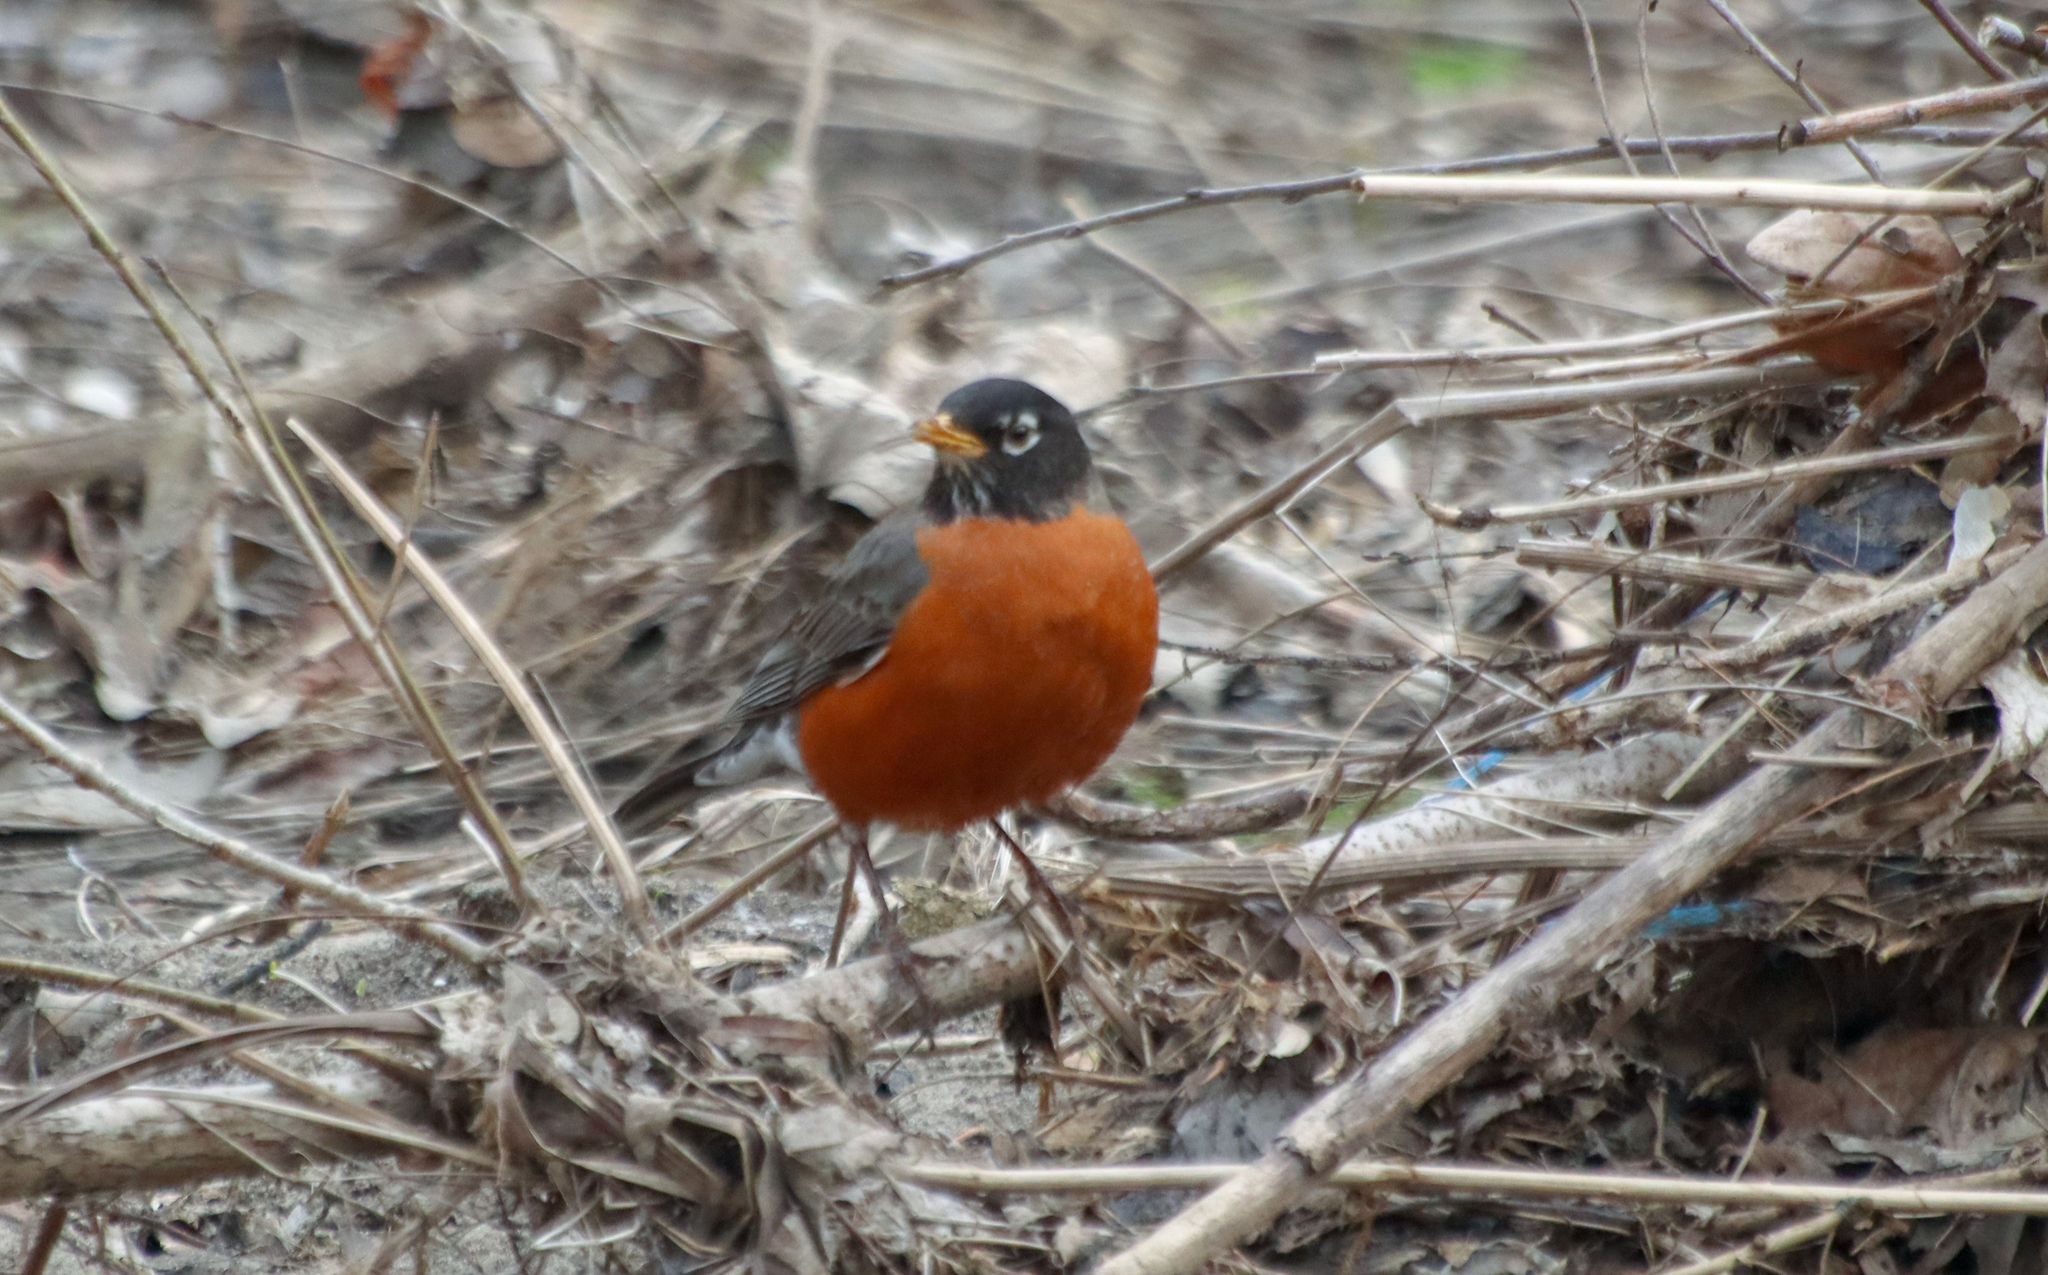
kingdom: Animalia
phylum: Chordata
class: Aves
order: Passeriformes
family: Turdidae
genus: Turdus
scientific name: Turdus migratorius
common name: American robin
